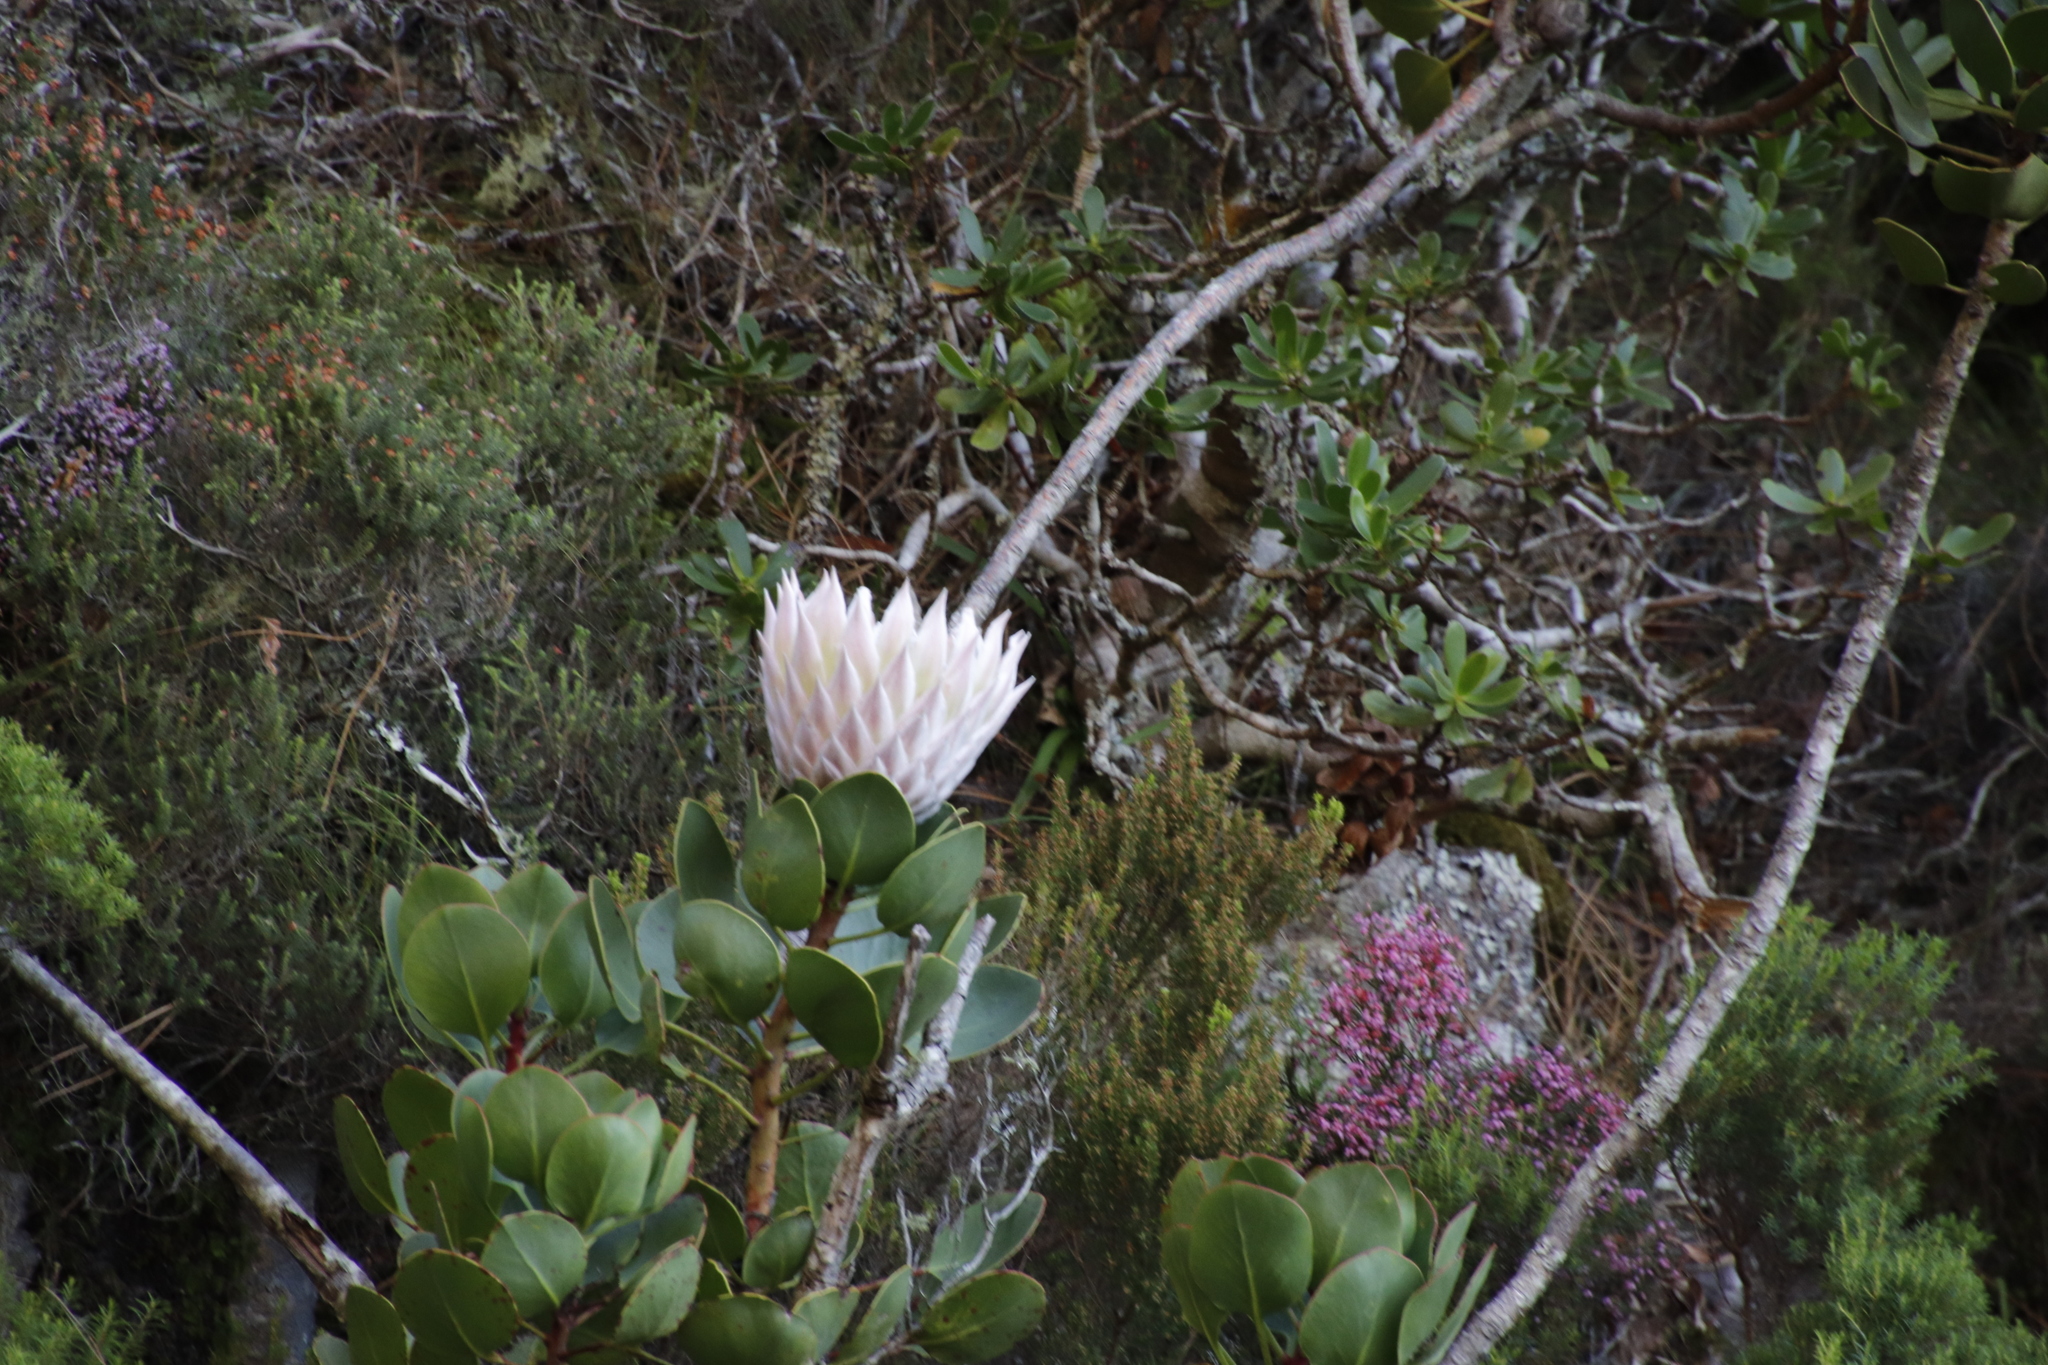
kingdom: Plantae
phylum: Tracheophyta
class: Magnoliopsida
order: Proteales
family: Proteaceae
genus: Protea
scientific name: Protea cynaroides
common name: King protea
